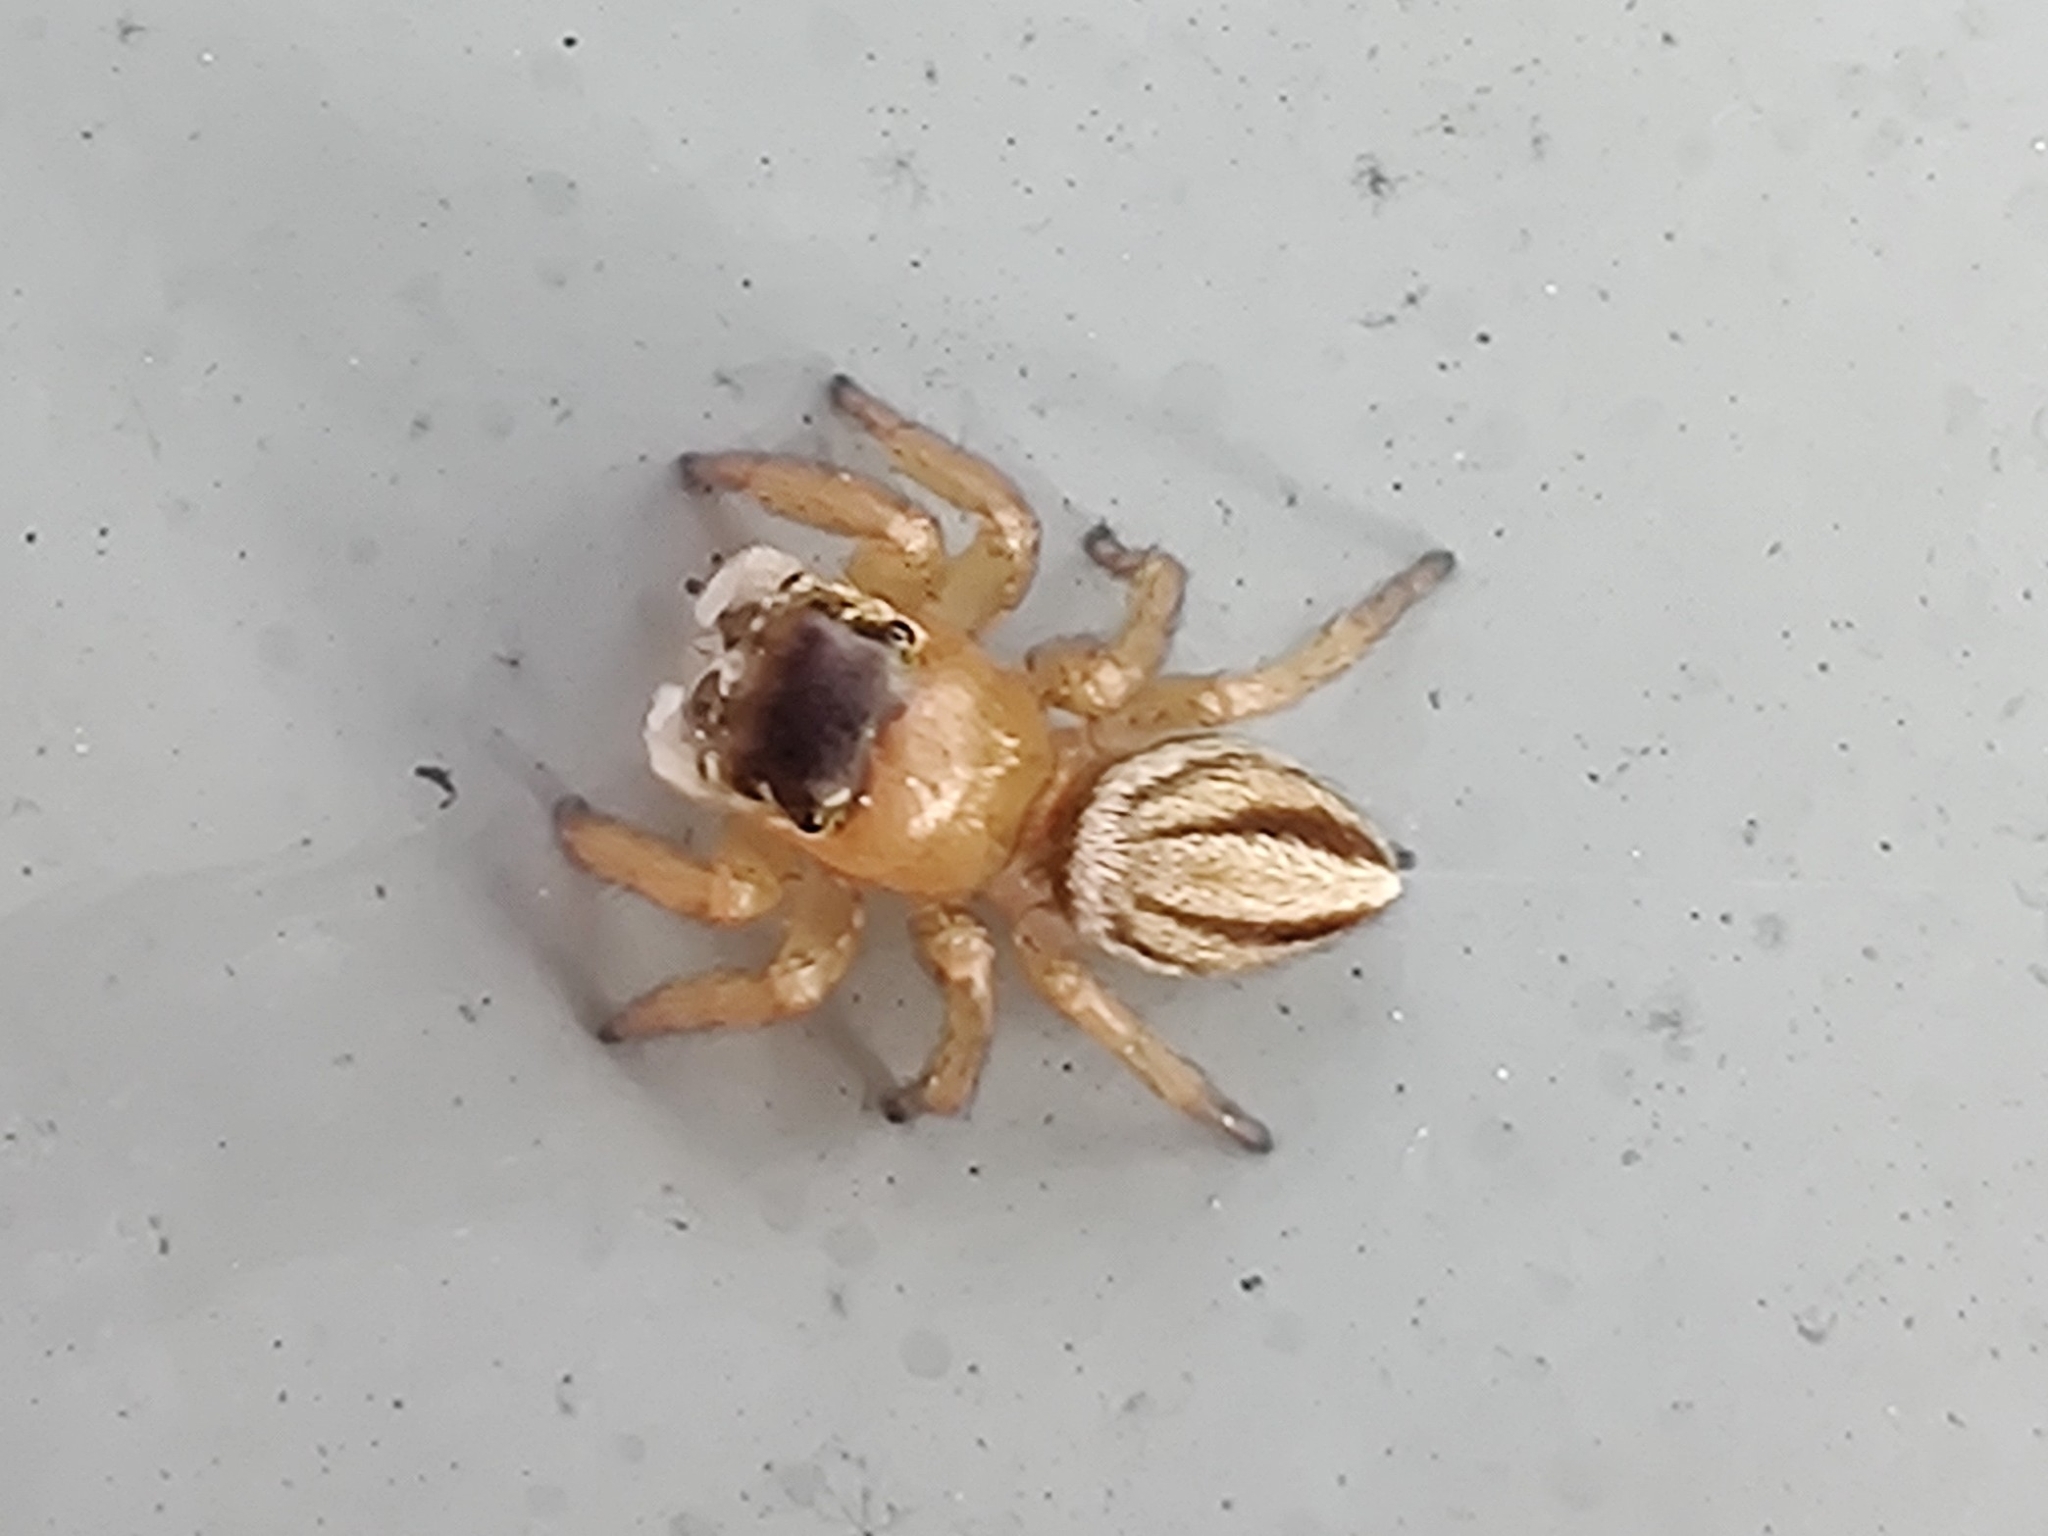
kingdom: Animalia
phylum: Arthropoda
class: Arachnida
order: Araneae
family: Salticidae
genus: Maratus
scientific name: Maratus scutulatus
